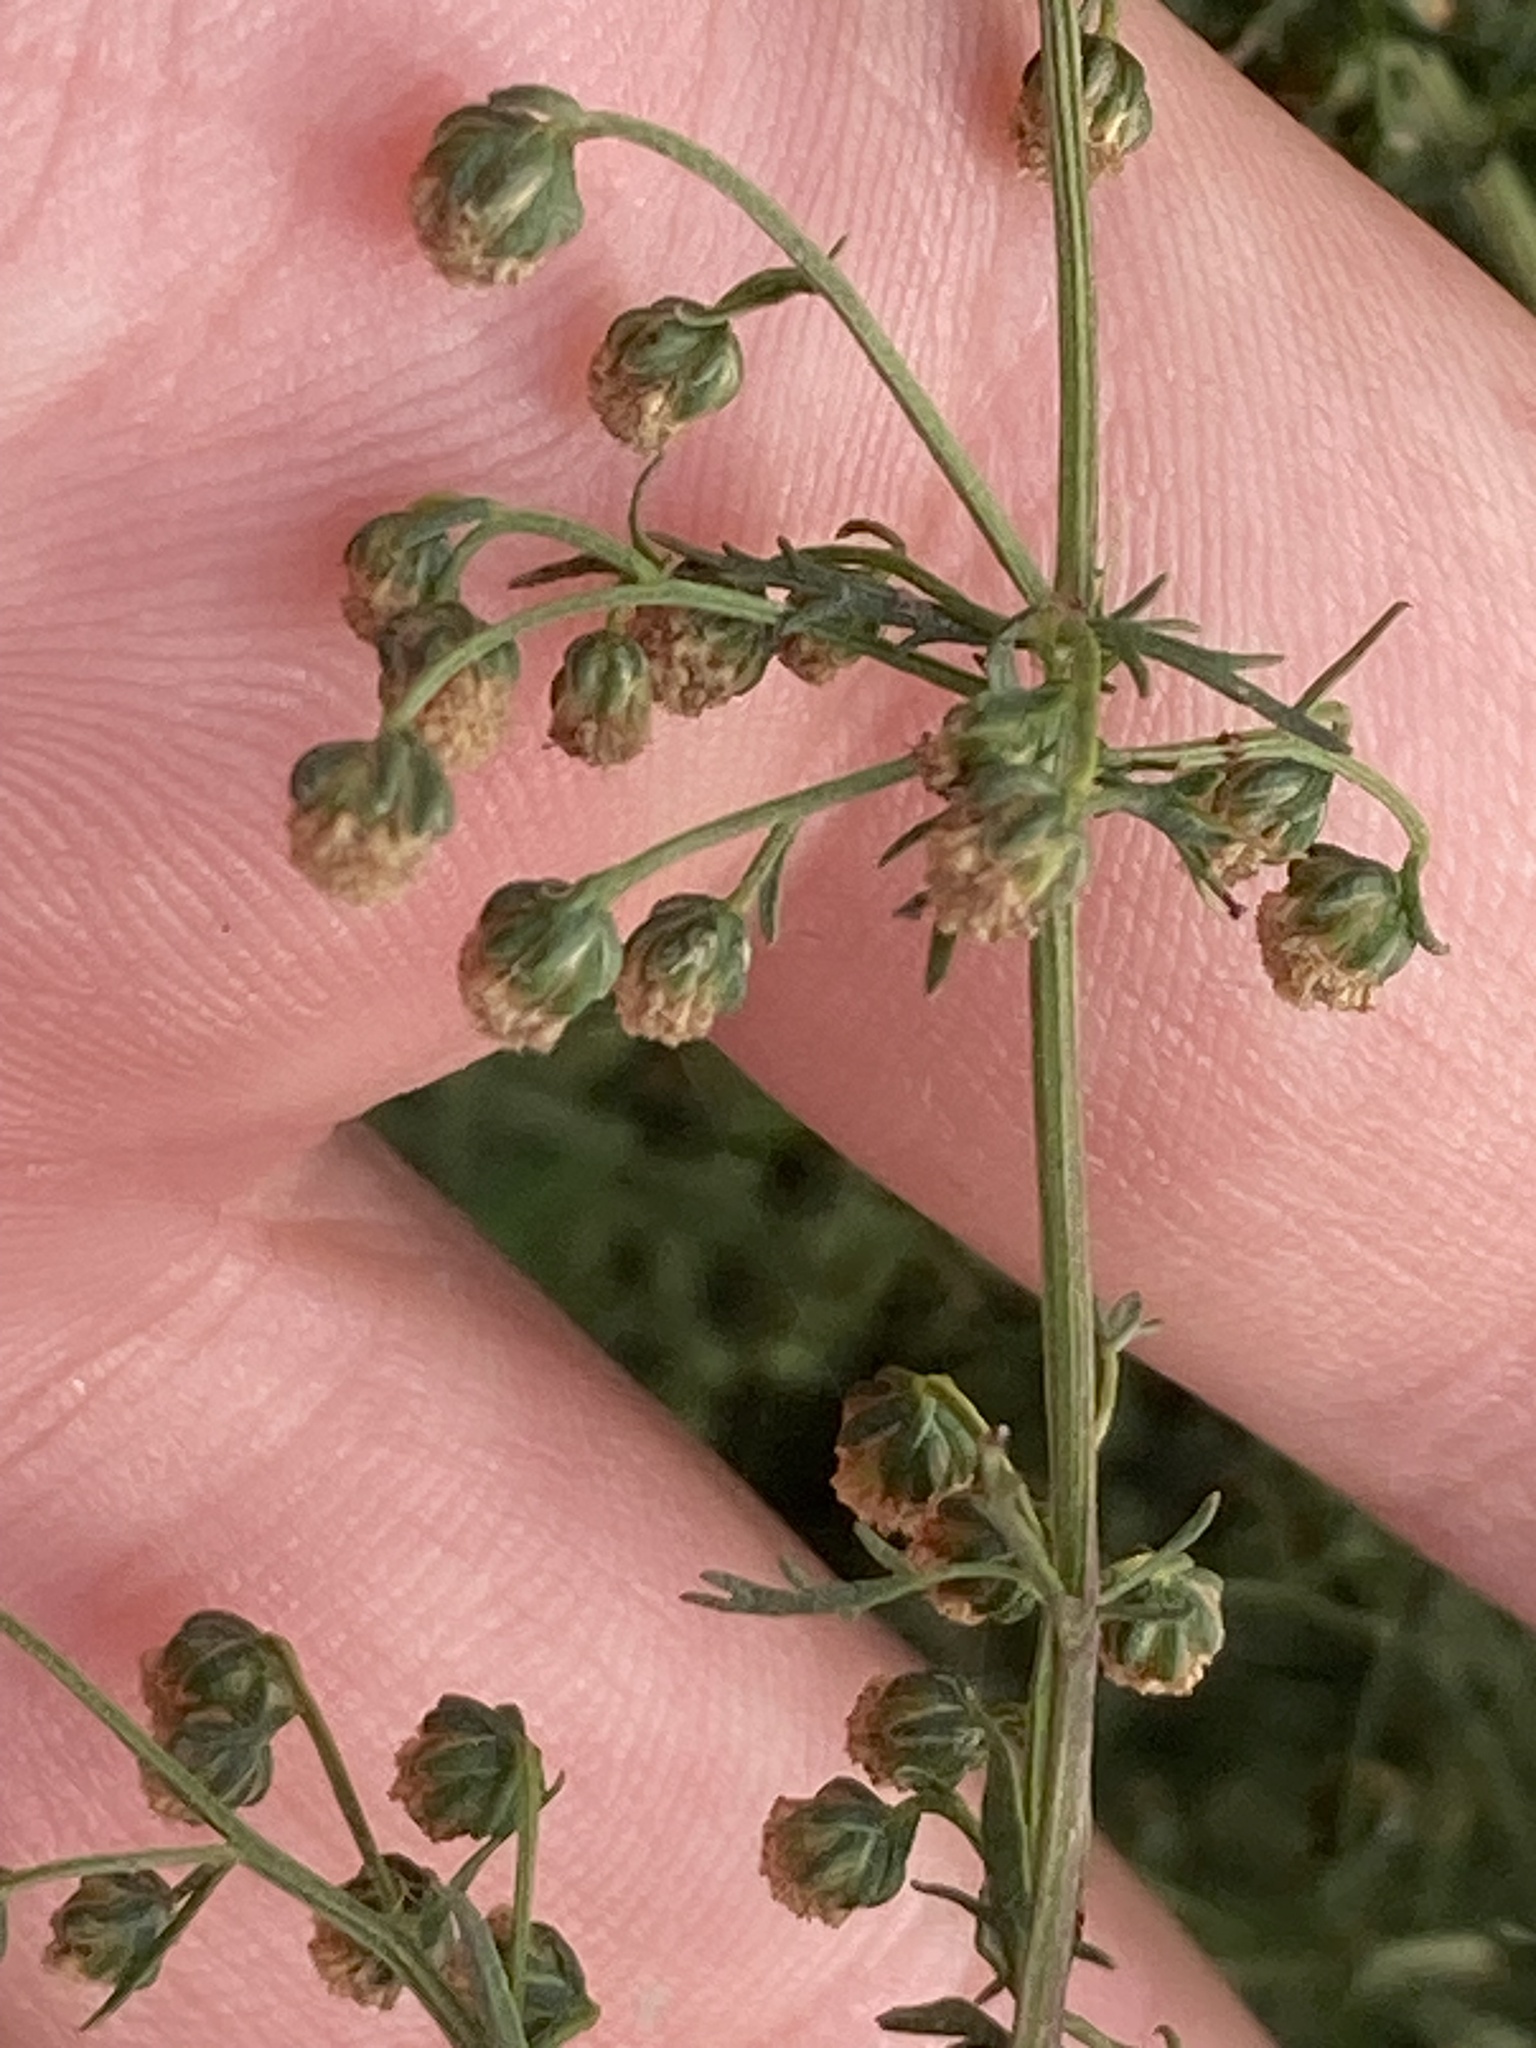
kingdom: Plantae
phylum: Tracheophyta
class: Magnoliopsida
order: Asterales
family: Asteraceae
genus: Artemisia
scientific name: Artemisia annua
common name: Sweet sagewort
